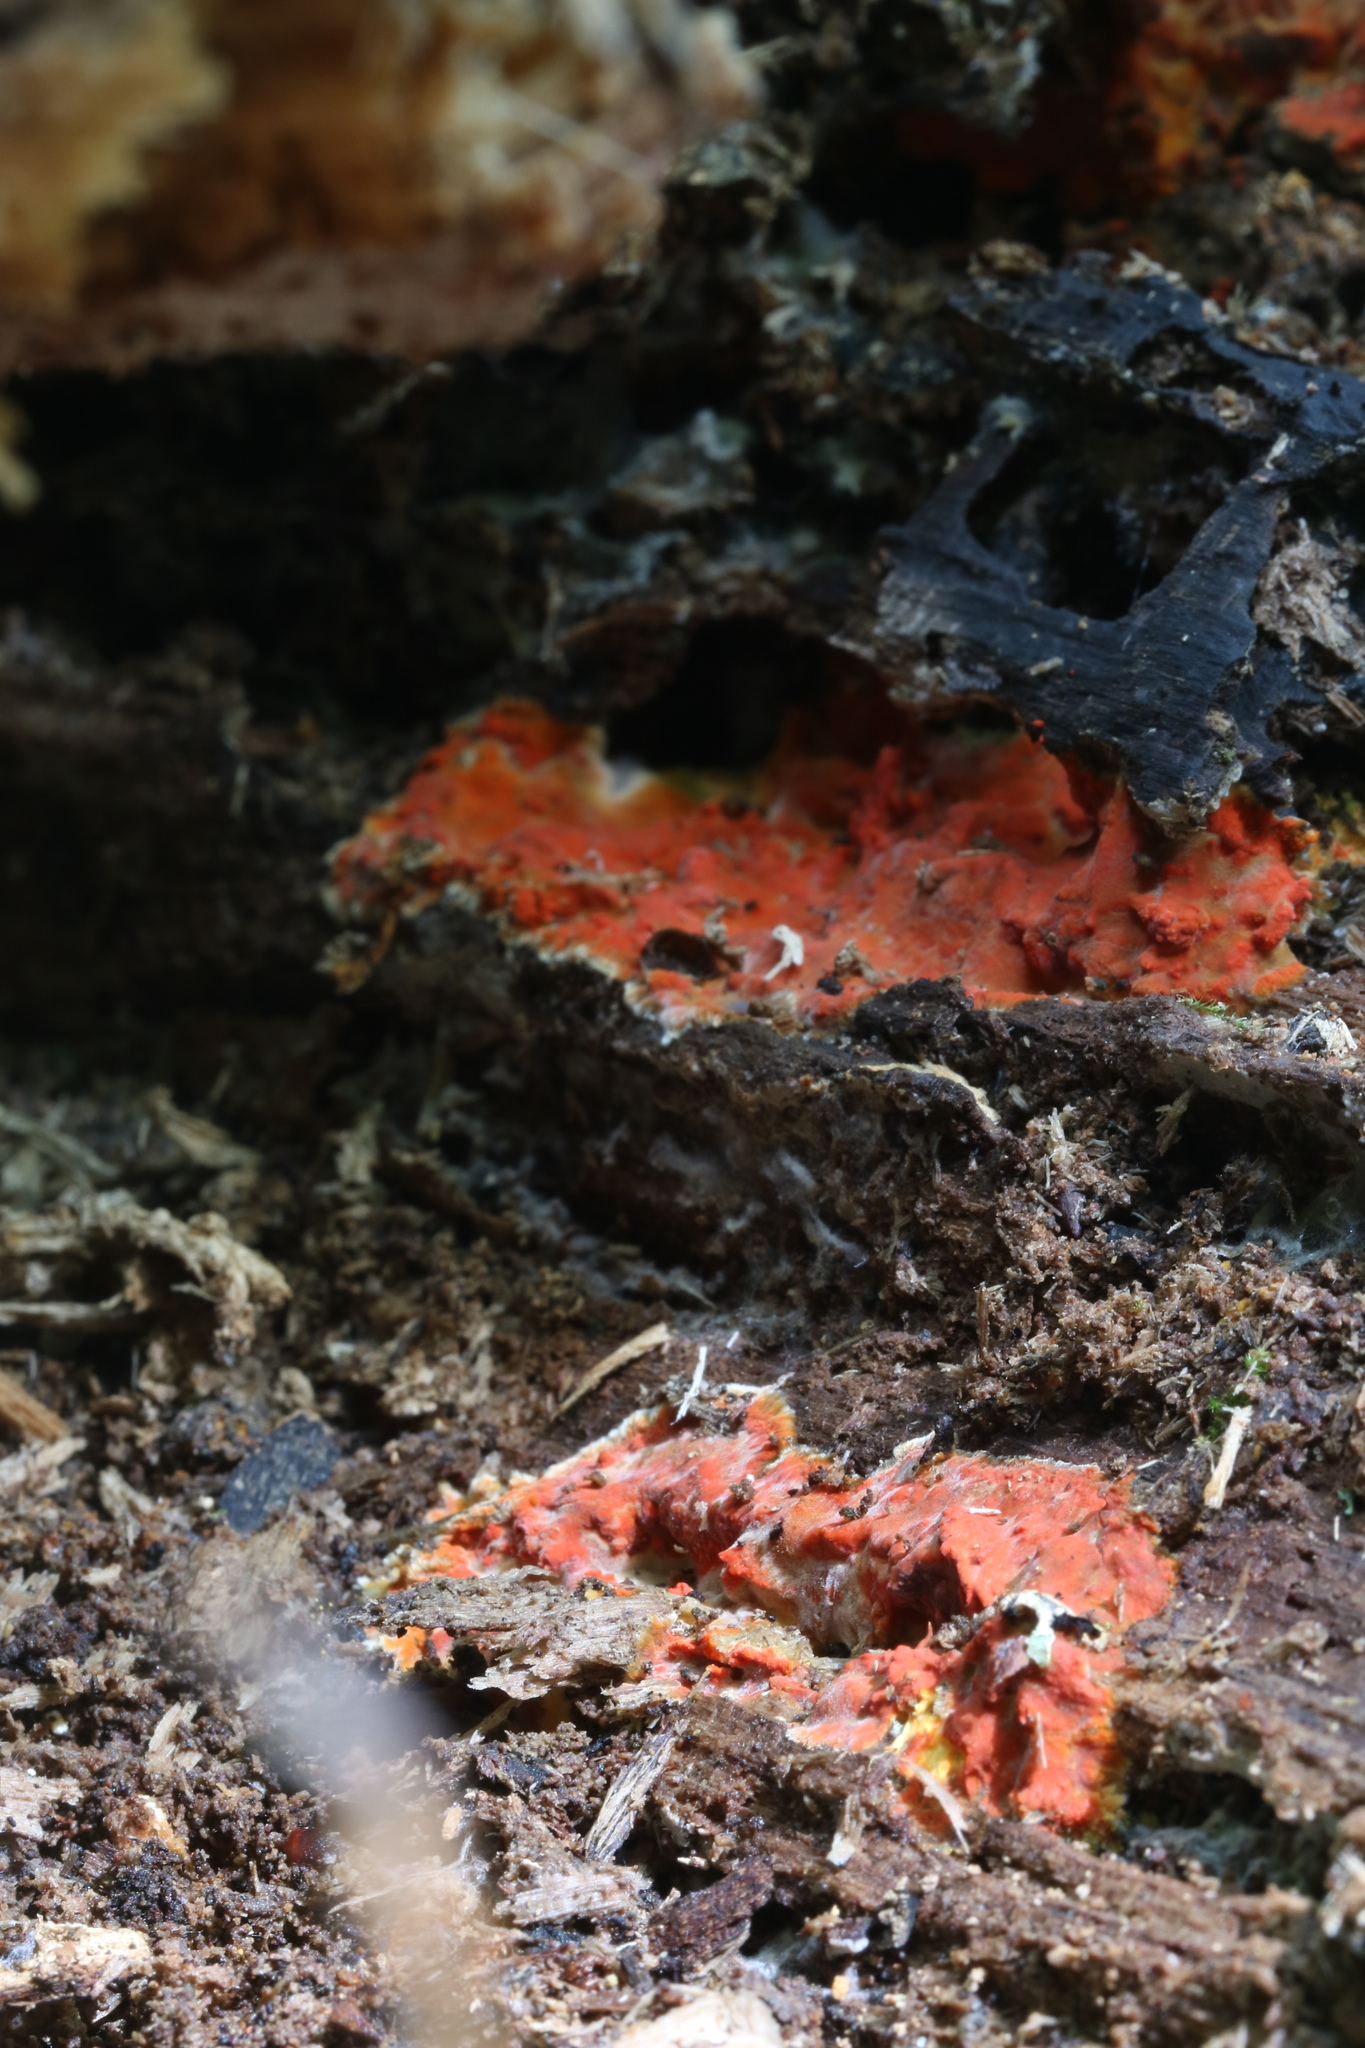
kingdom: Fungi
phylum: Basidiomycota
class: Agaricomycetes
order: Polyporales
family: Meruliaceae
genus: Phlebia
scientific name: Phlebia coccineofulva
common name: Scarlet waxcrust
